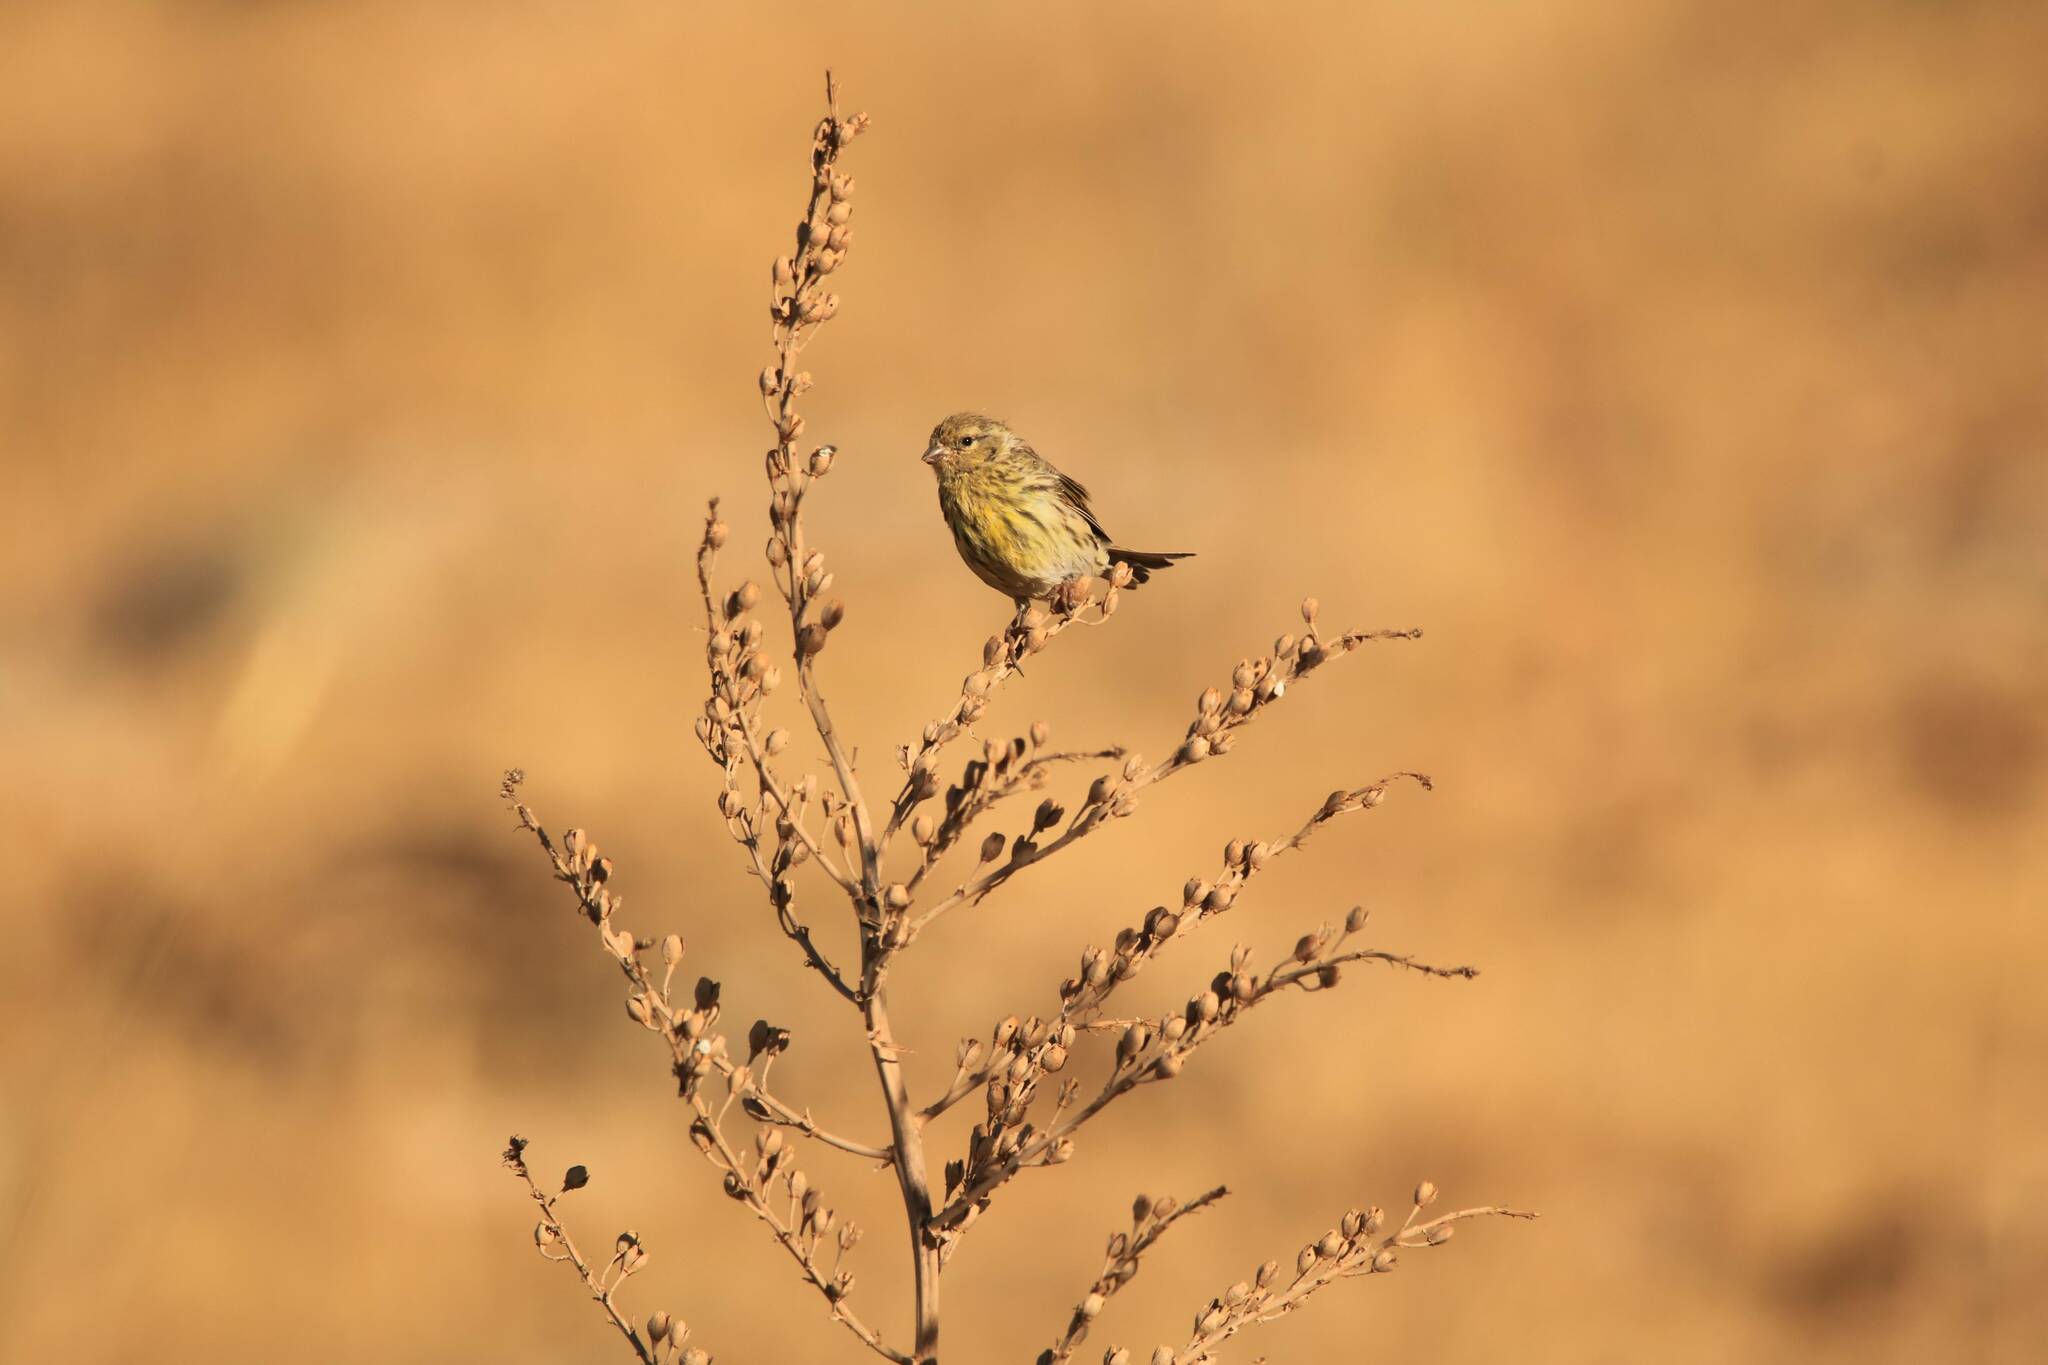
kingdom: Animalia
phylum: Chordata
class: Aves
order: Passeriformes
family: Fringillidae
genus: Serinus
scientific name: Serinus serinus
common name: European serin
